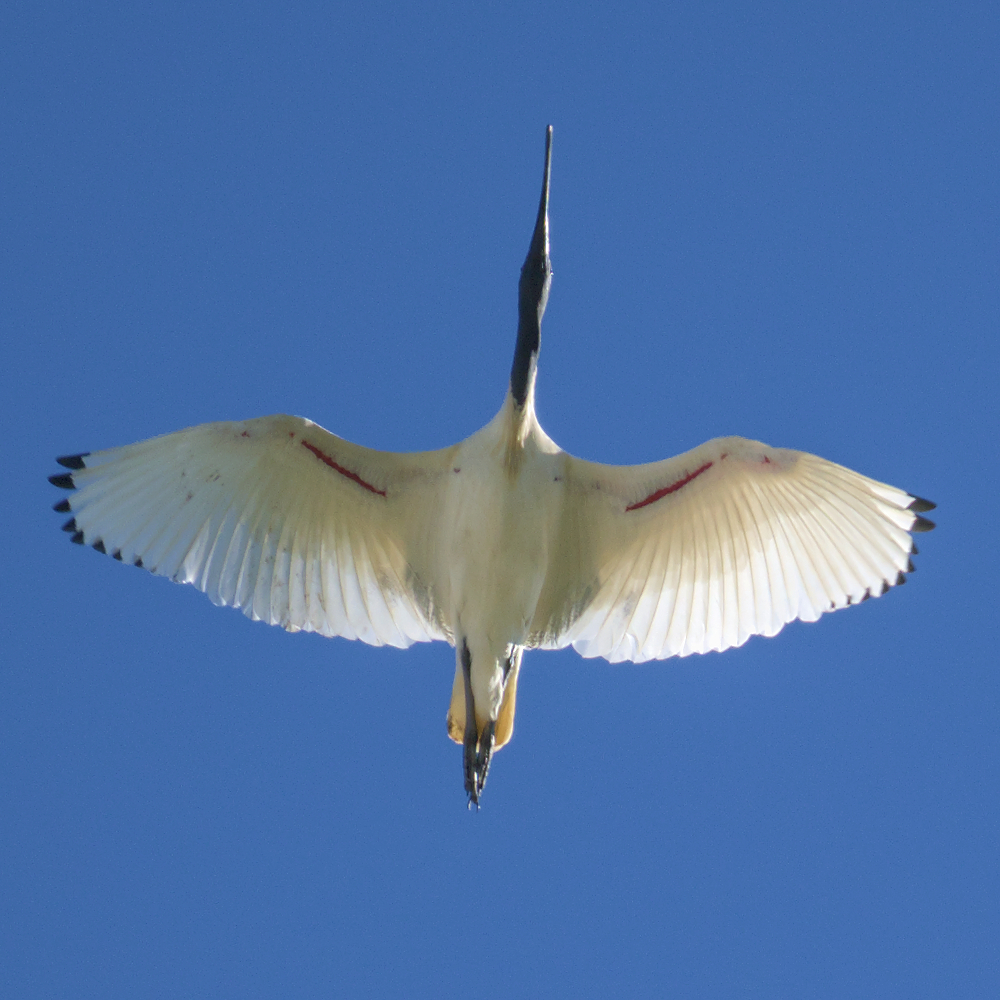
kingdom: Animalia
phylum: Chordata
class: Aves
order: Pelecaniformes
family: Threskiornithidae
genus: Threskiornis
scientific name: Threskiornis molucca
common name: Australian white ibis
